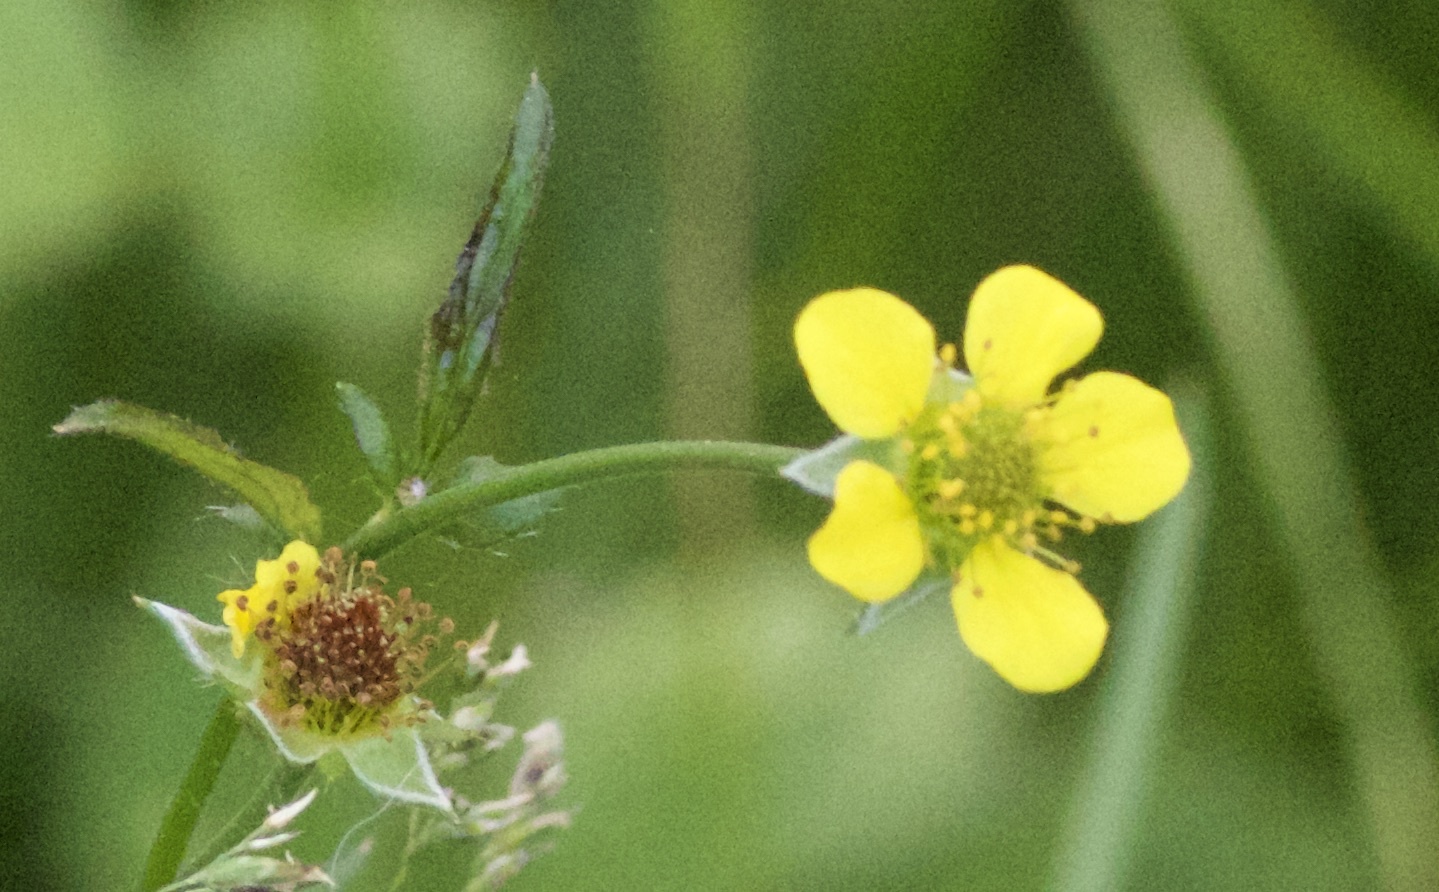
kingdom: Plantae
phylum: Tracheophyta
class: Magnoliopsida
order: Rosales
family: Rosaceae
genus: Geum
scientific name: Geum urbanum
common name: Wood avens
